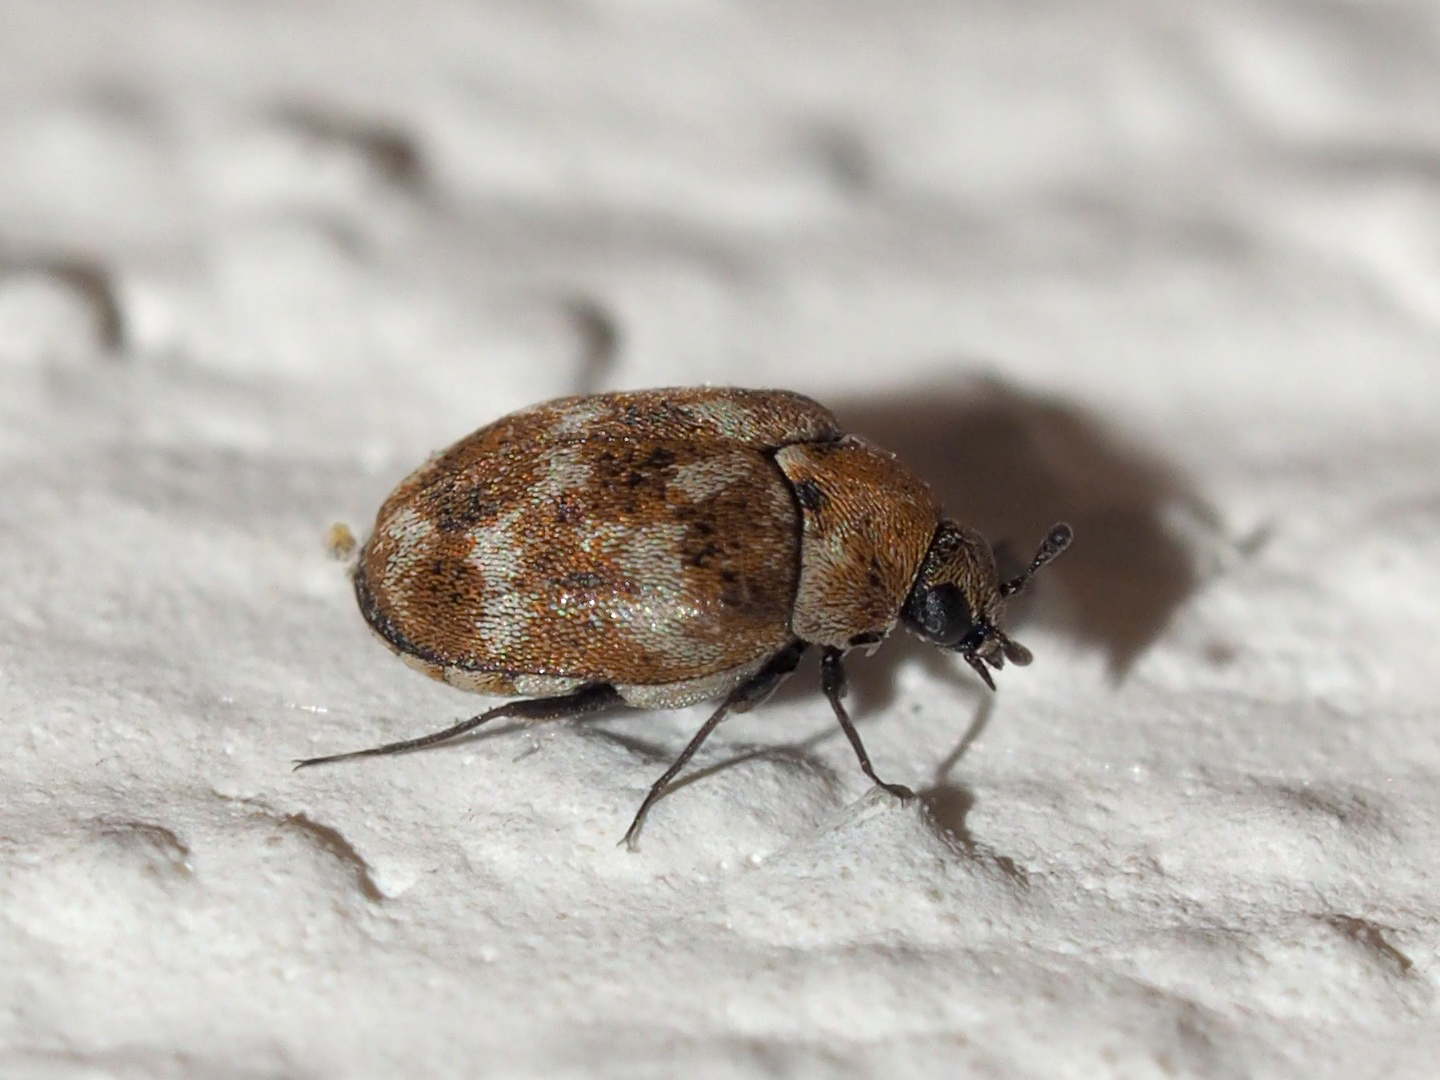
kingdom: Animalia
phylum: Arthropoda
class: Insecta
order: Coleoptera
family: Dermestidae
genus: Anthrenus
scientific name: Anthrenus verbasci
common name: Varied carpet beetle
